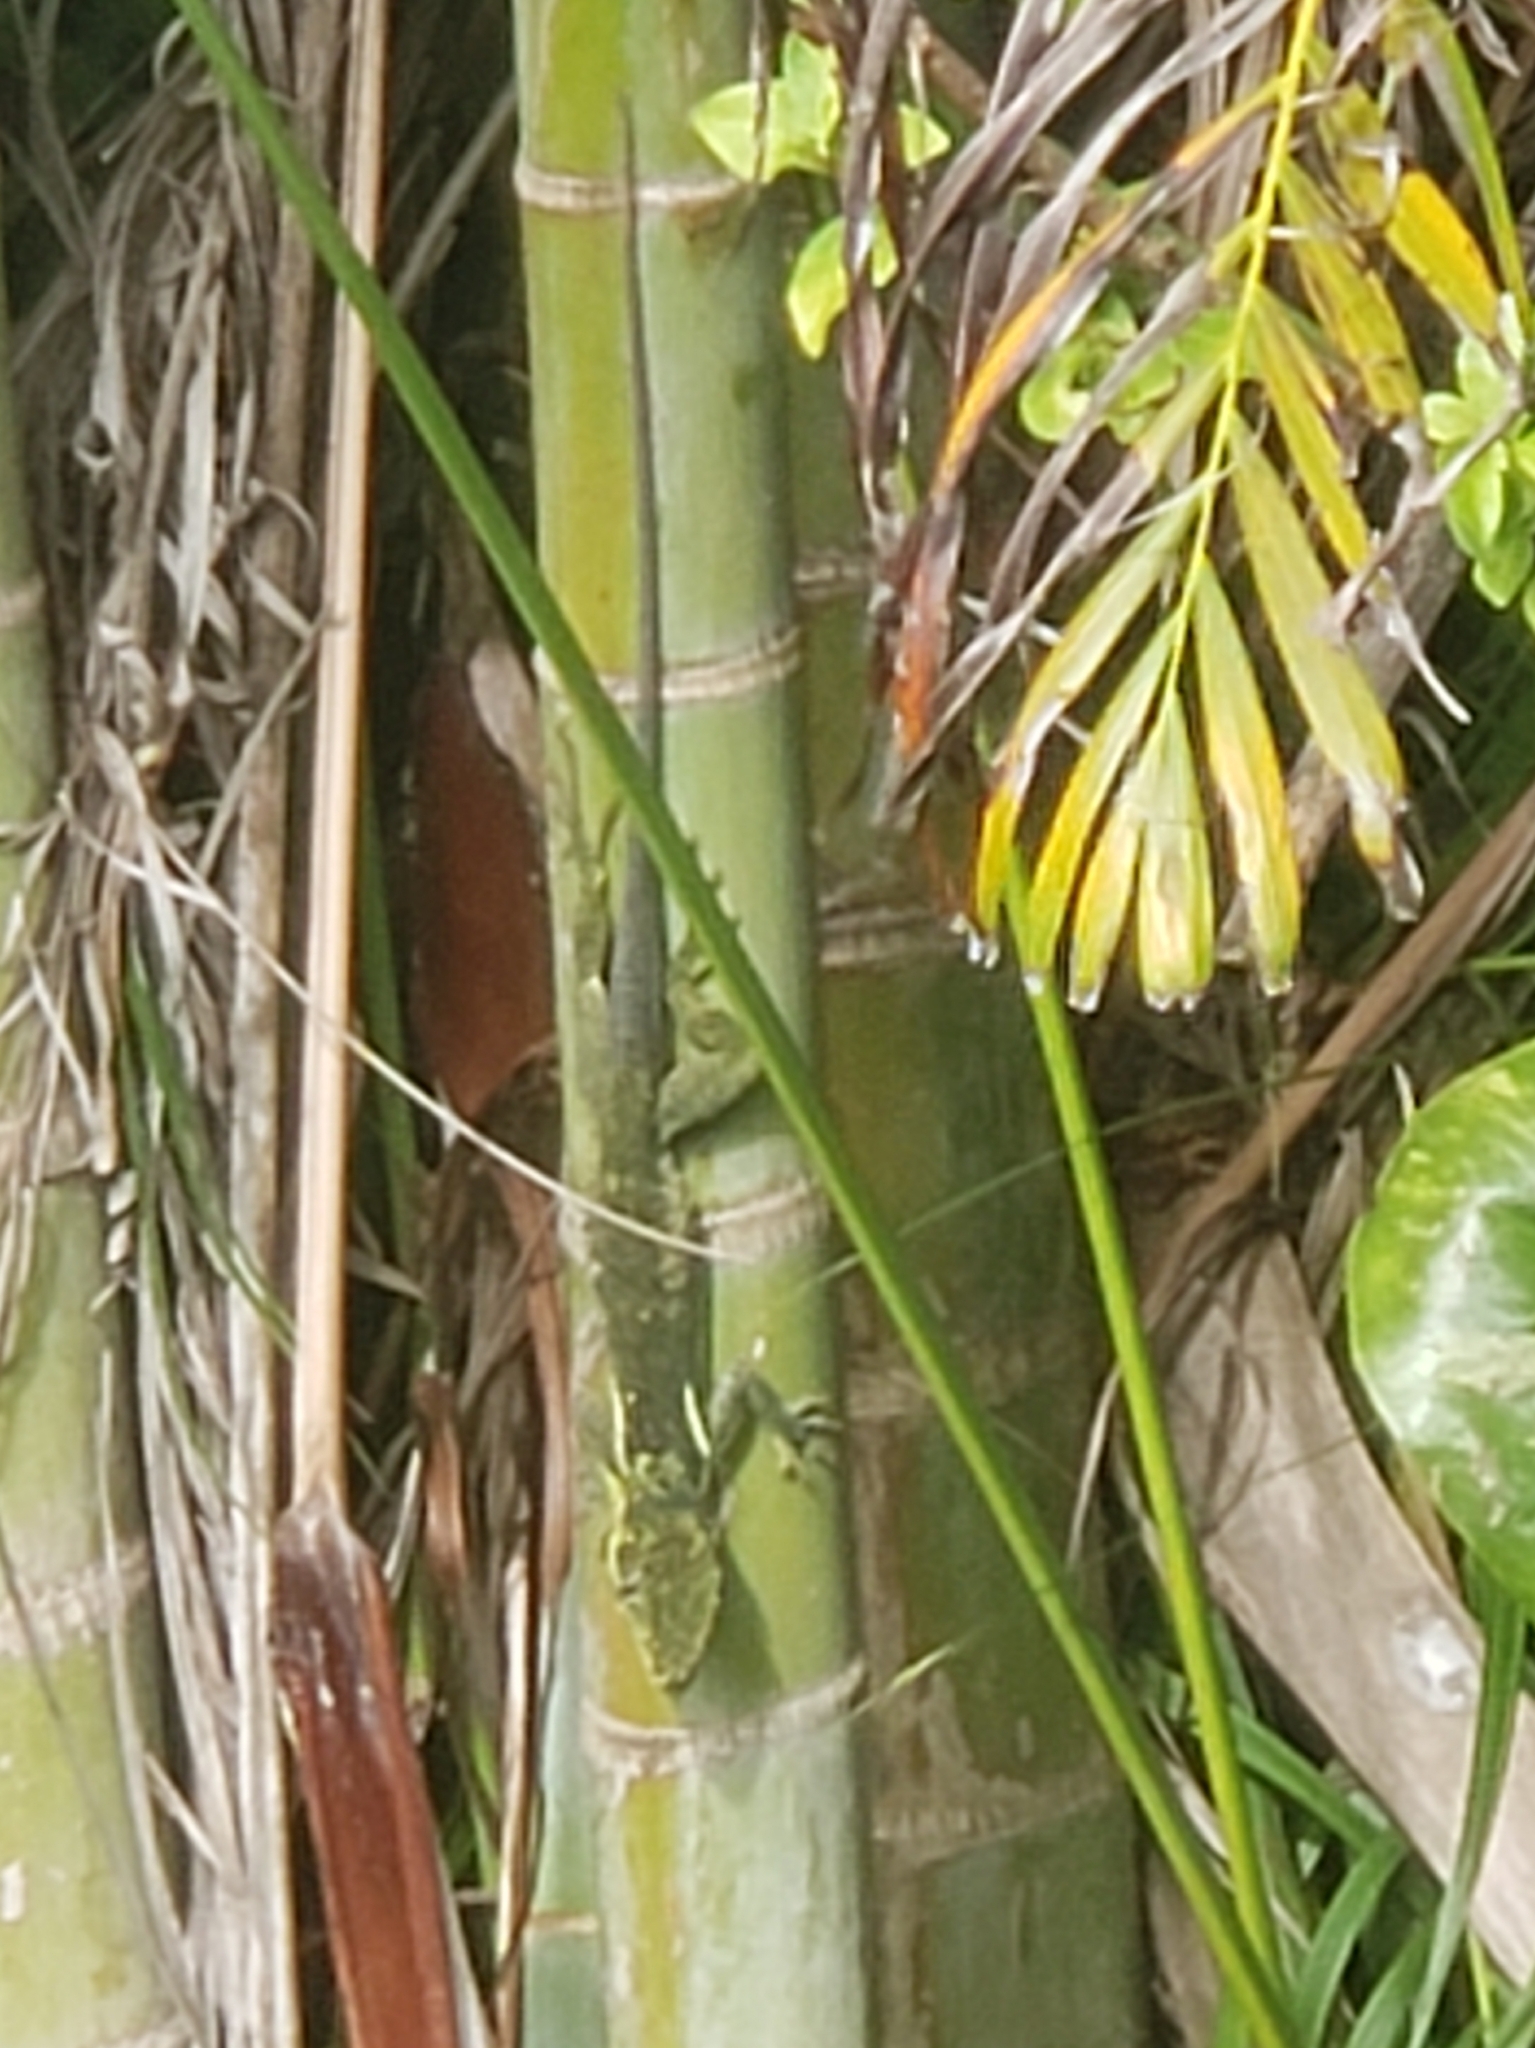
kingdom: Animalia
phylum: Chordata
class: Squamata
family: Dactyloidae
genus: Anolis
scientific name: Anolis equestris
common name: Knight anole
